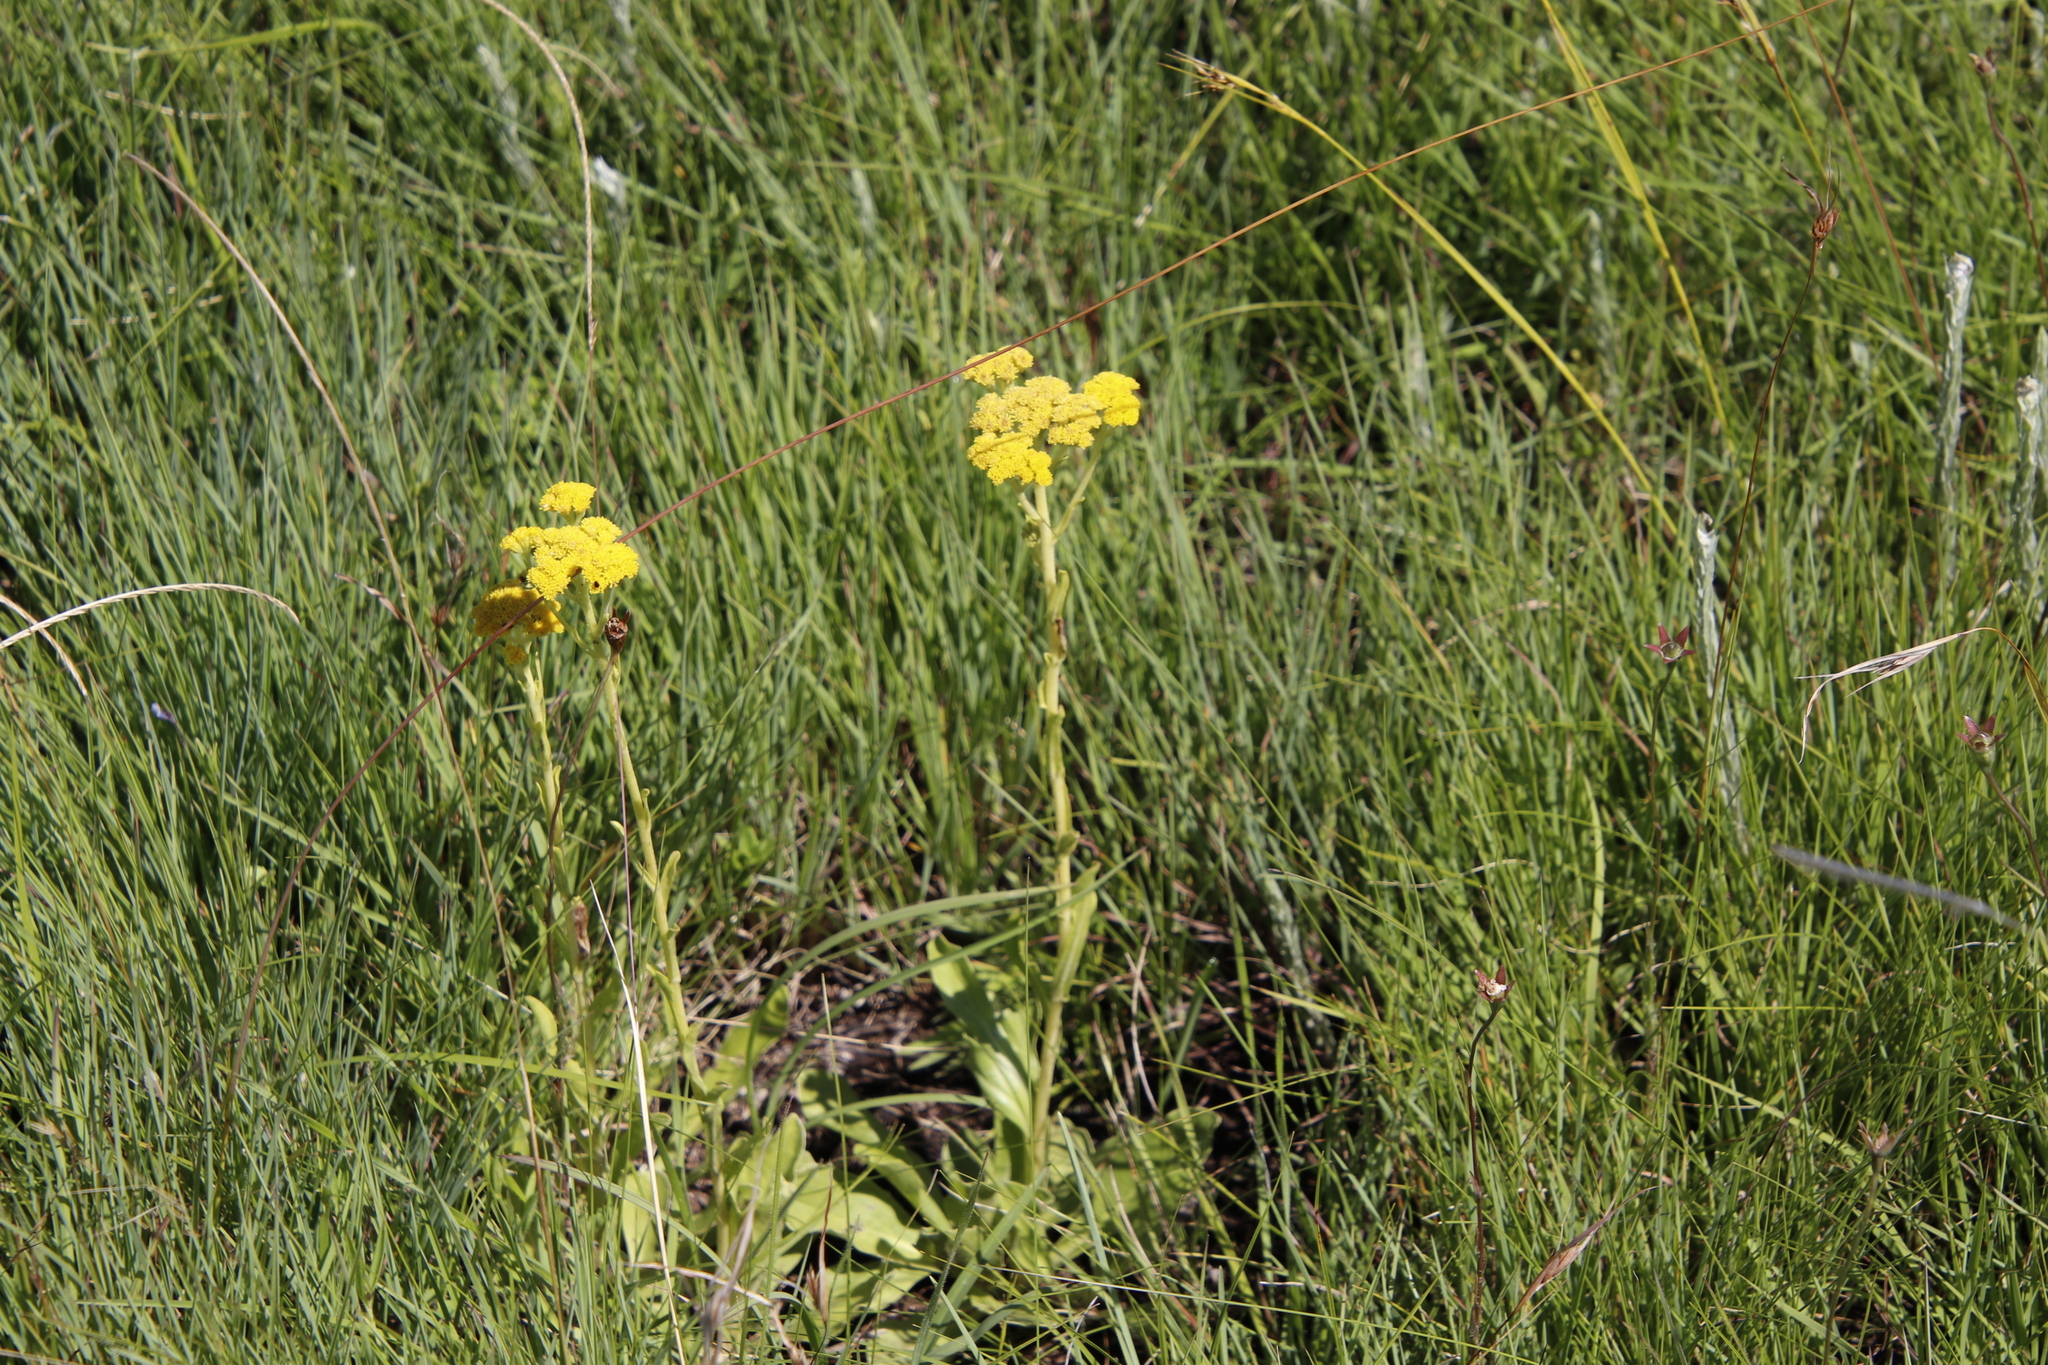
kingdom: Plantae
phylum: Tracheophyta
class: Magnoliopsida
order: Saxifragales
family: Crassulaceae
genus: Crassula
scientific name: Crassula vaginata
